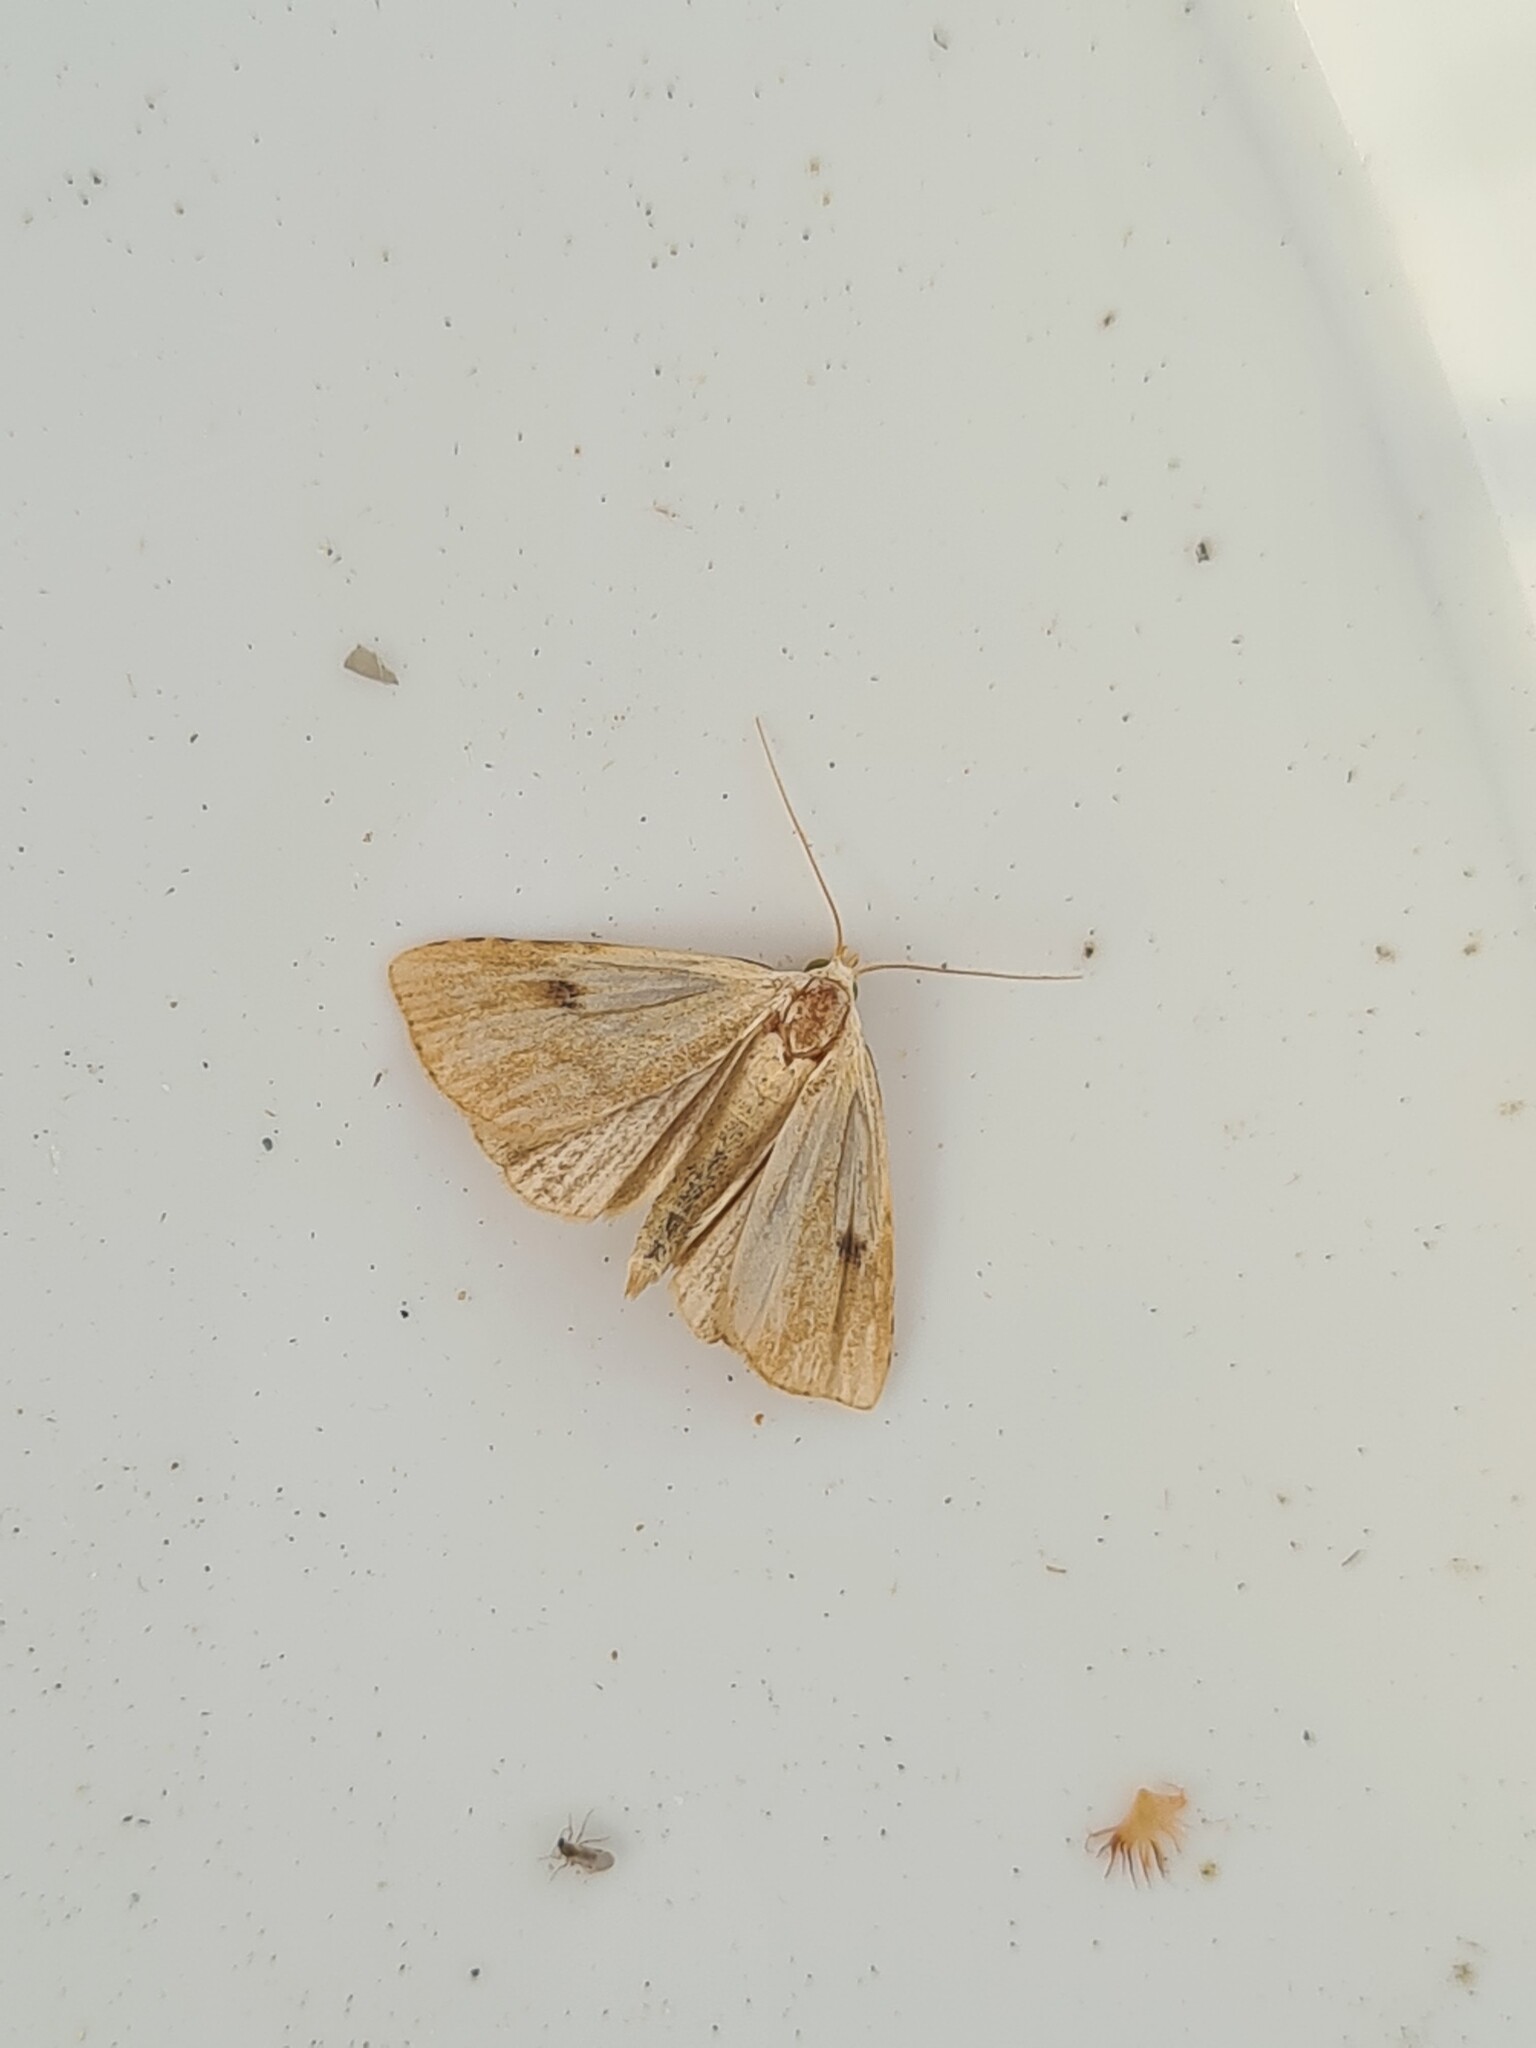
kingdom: Animalia
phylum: Arthropoda
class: Insecta
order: Lepidoptera
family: Erebidae
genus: Rivula
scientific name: Rivula sericealis
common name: Straw dot
